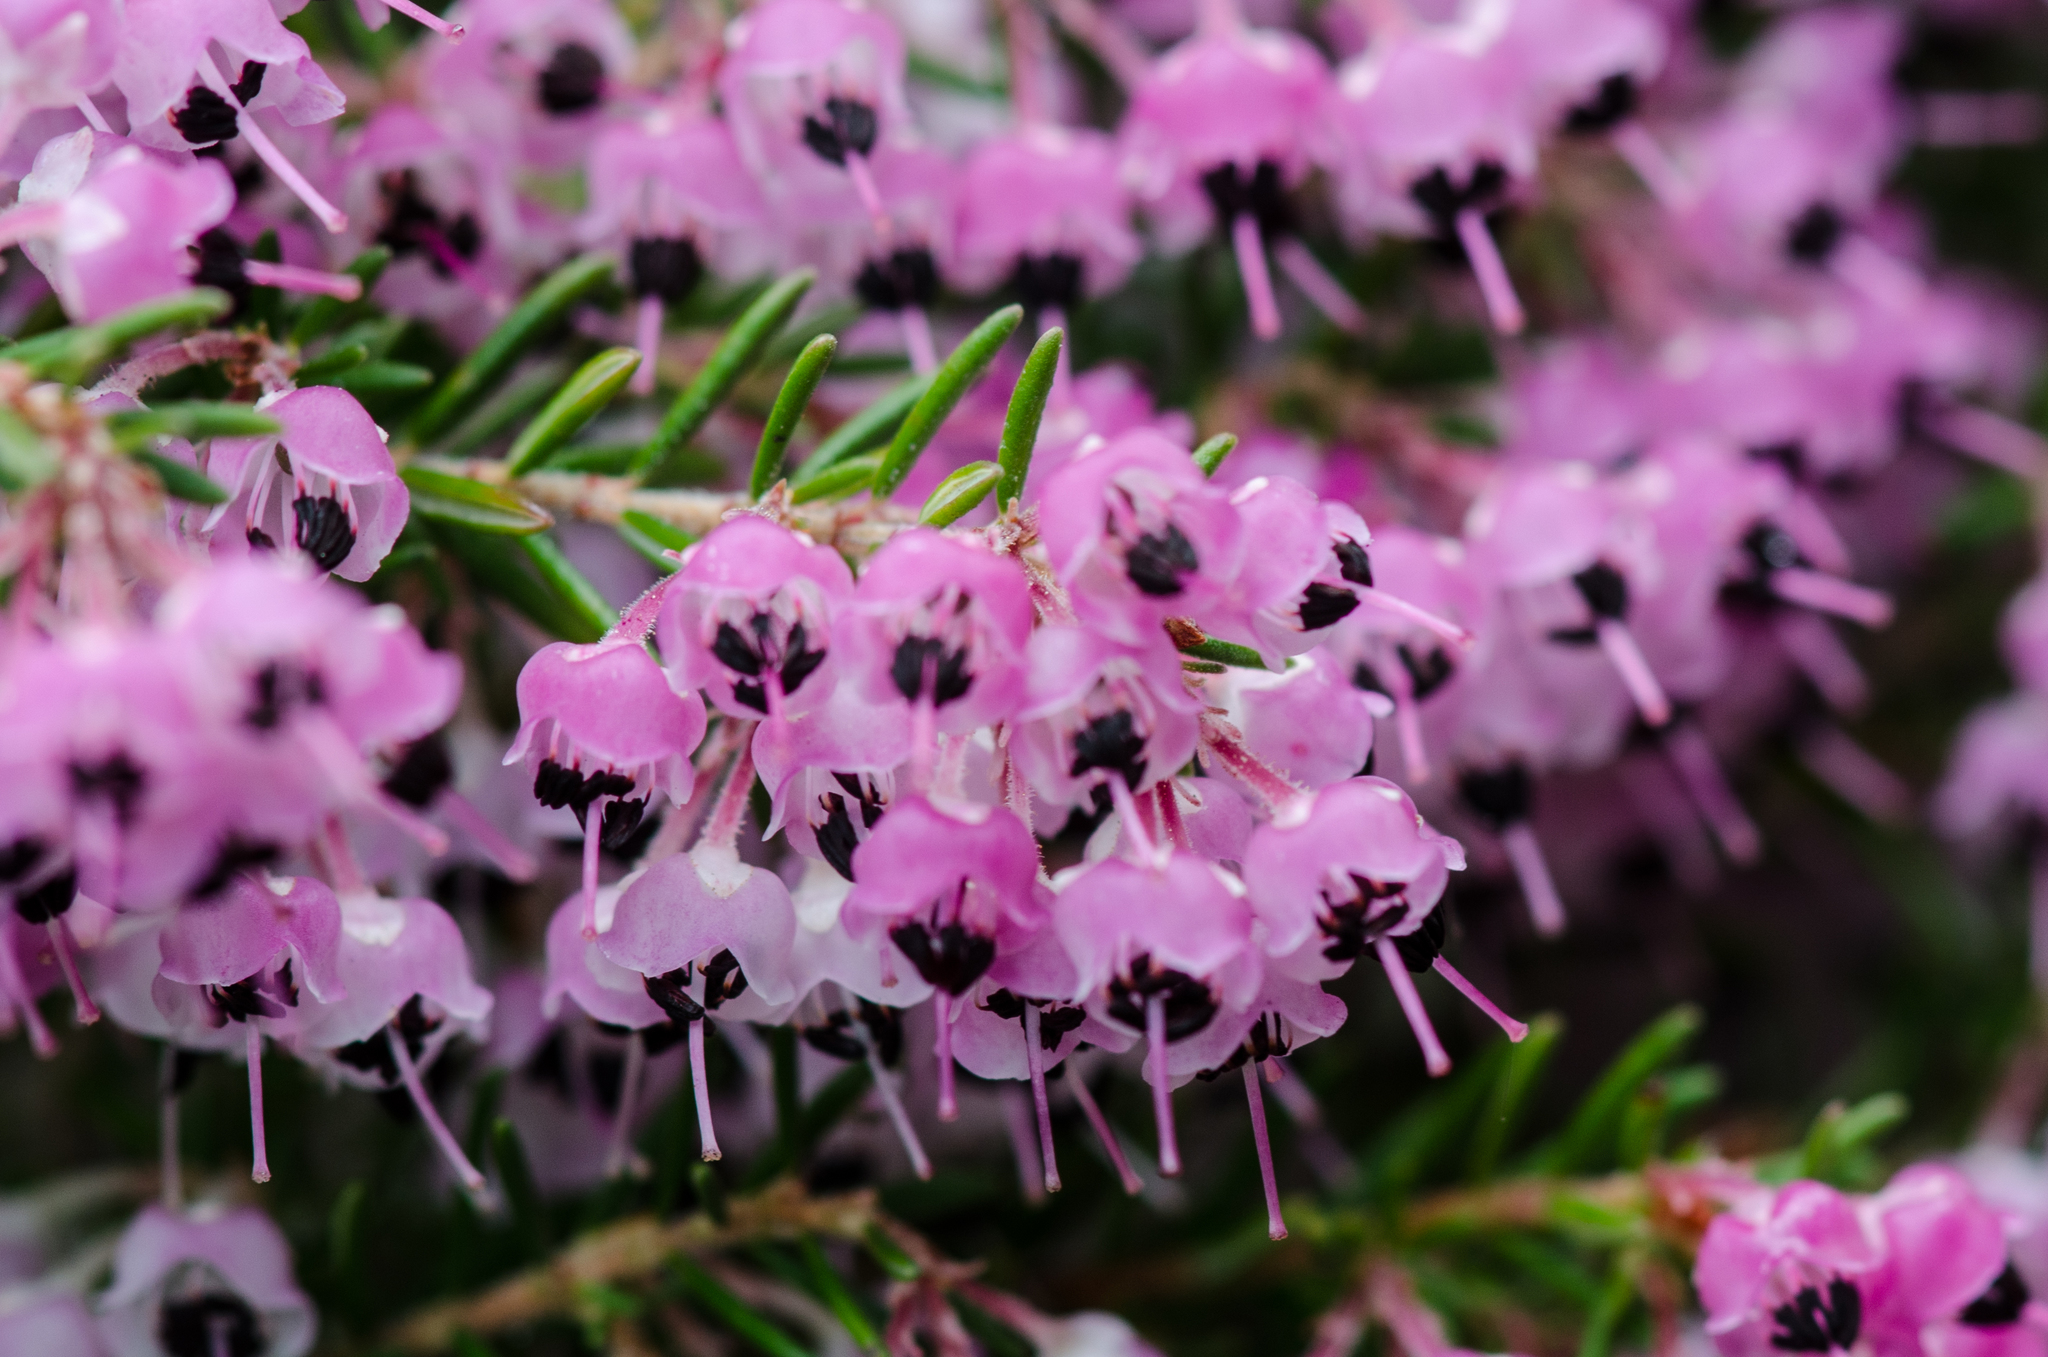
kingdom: Plantae
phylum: Tracheophyta
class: Magnoliopsida
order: Ericales
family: Ericaceae
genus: Erica
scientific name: Erica canaliculata
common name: Hairy grey heather
